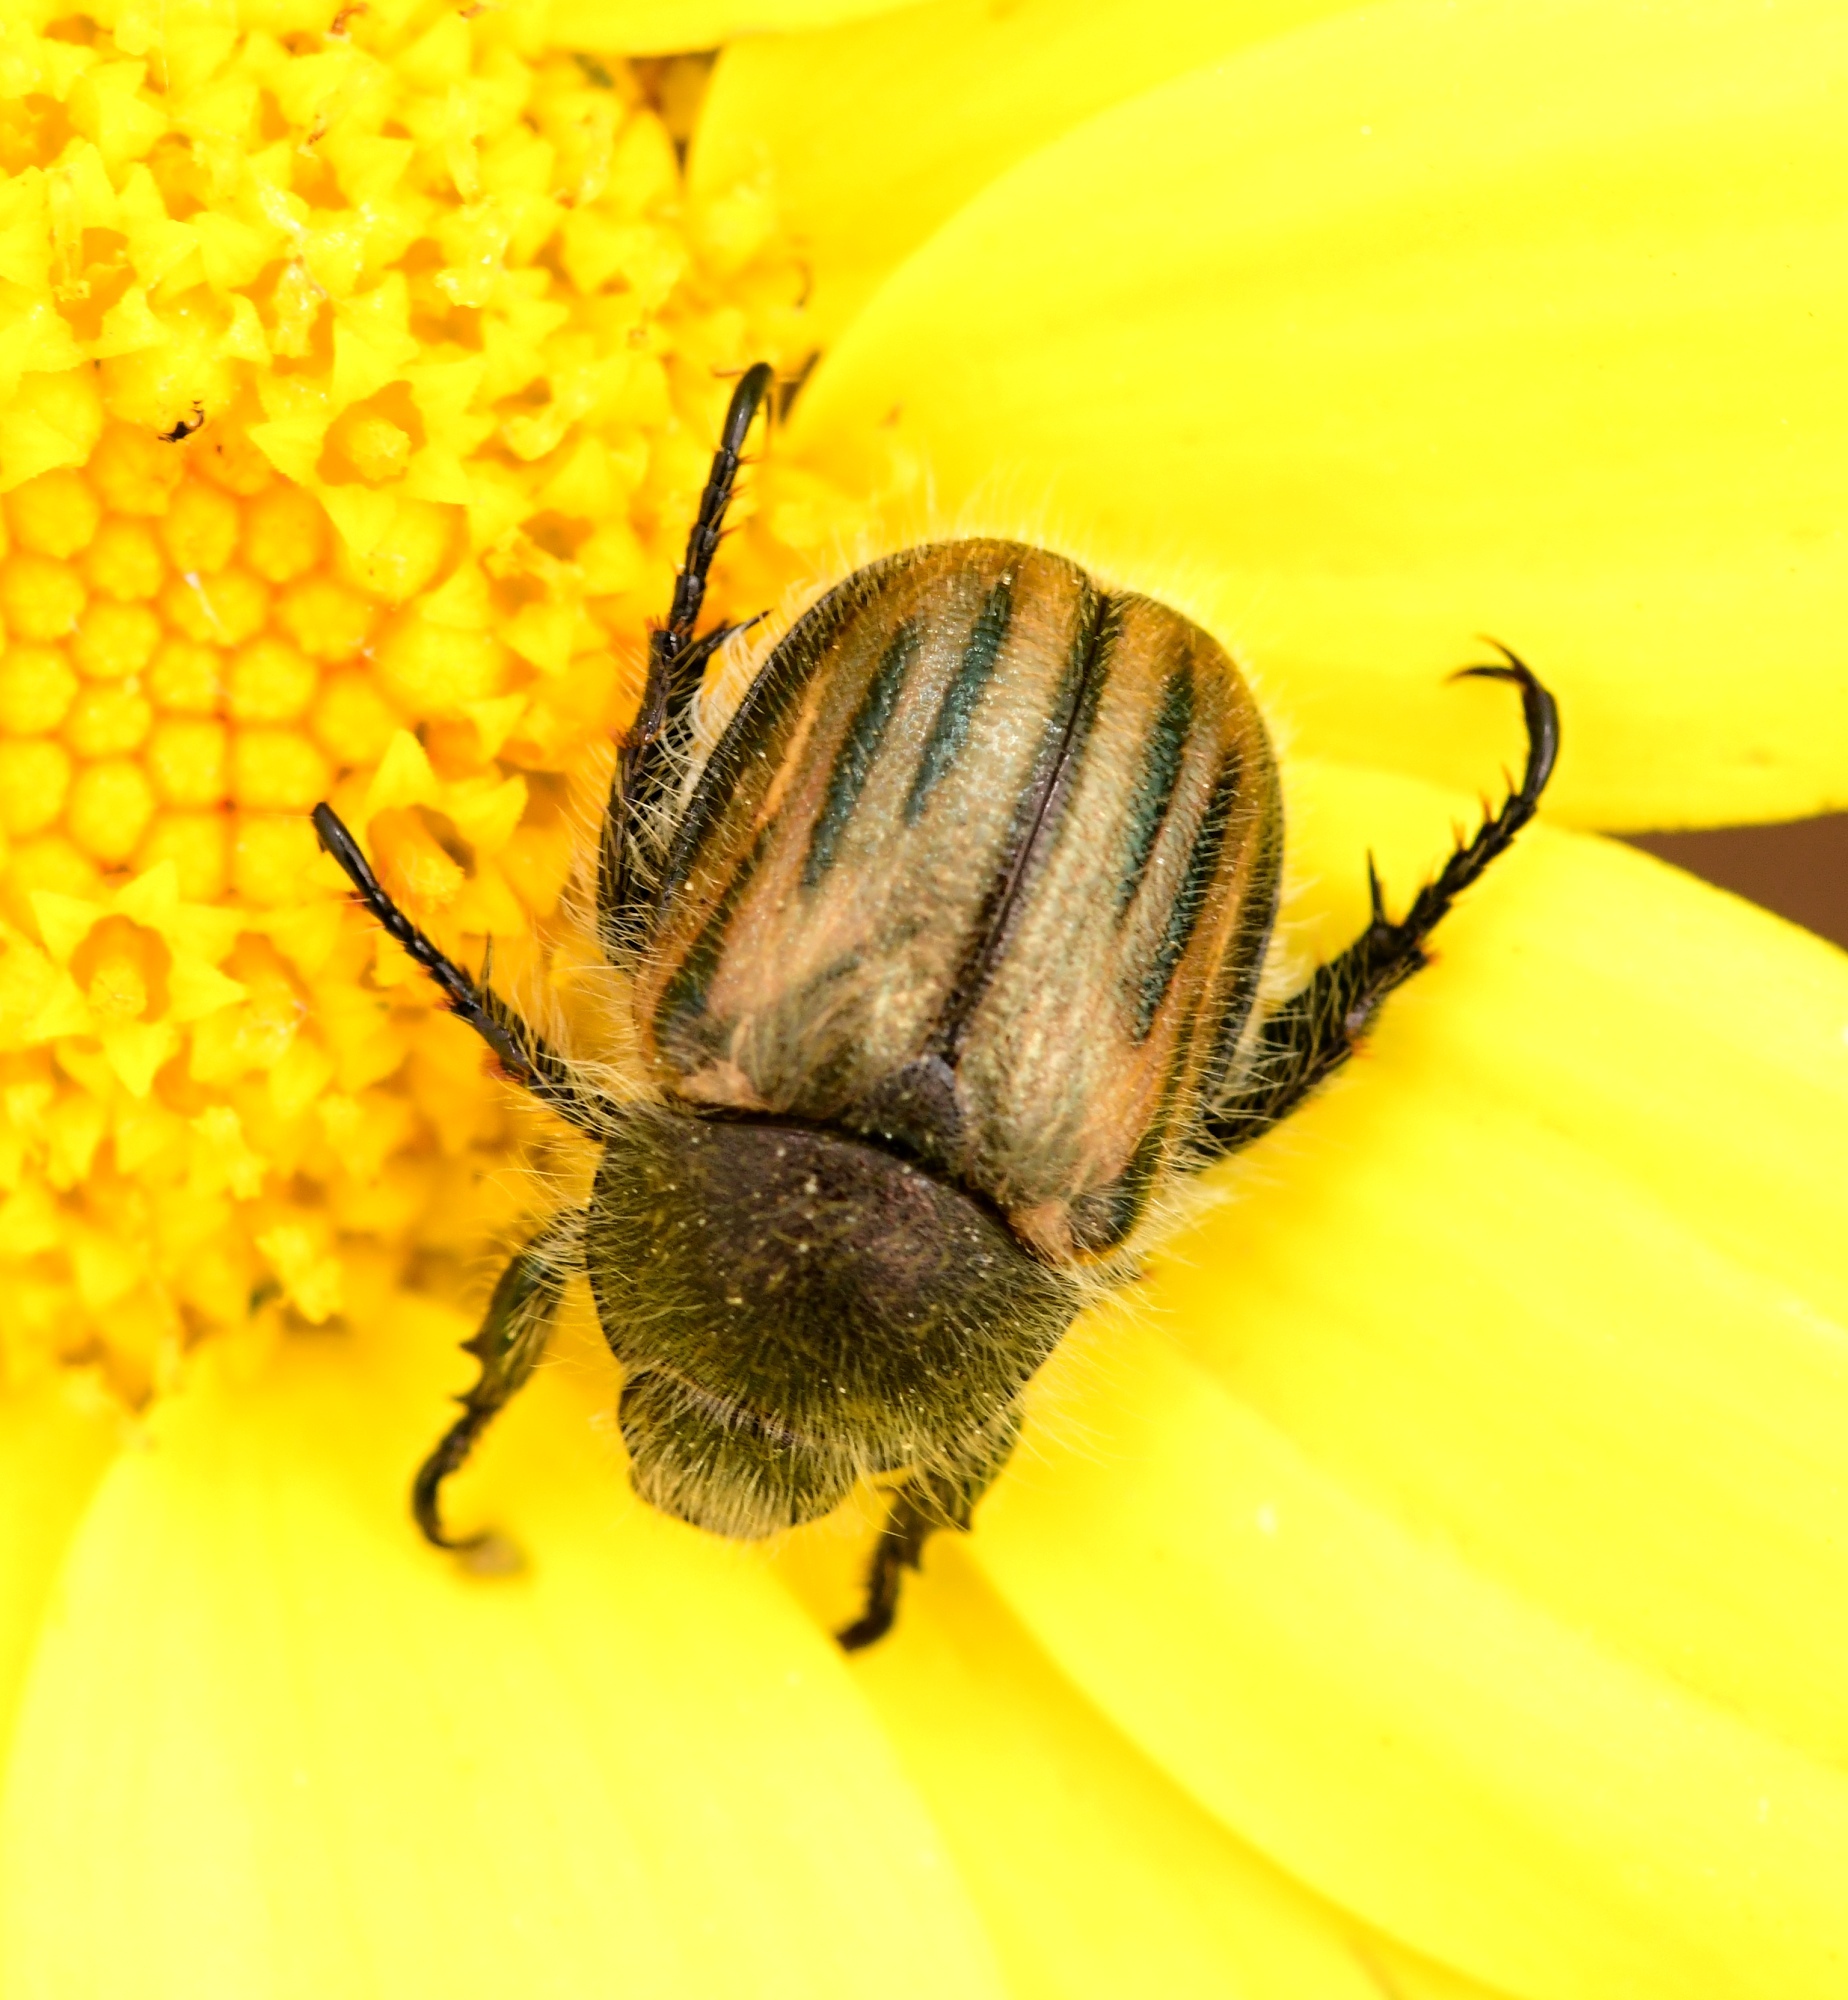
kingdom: Animalia
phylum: Arthropoda
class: Insecta
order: Coleoptera
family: Scarabaeidae
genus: Blitopertha
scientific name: Blitopertha lineolata
